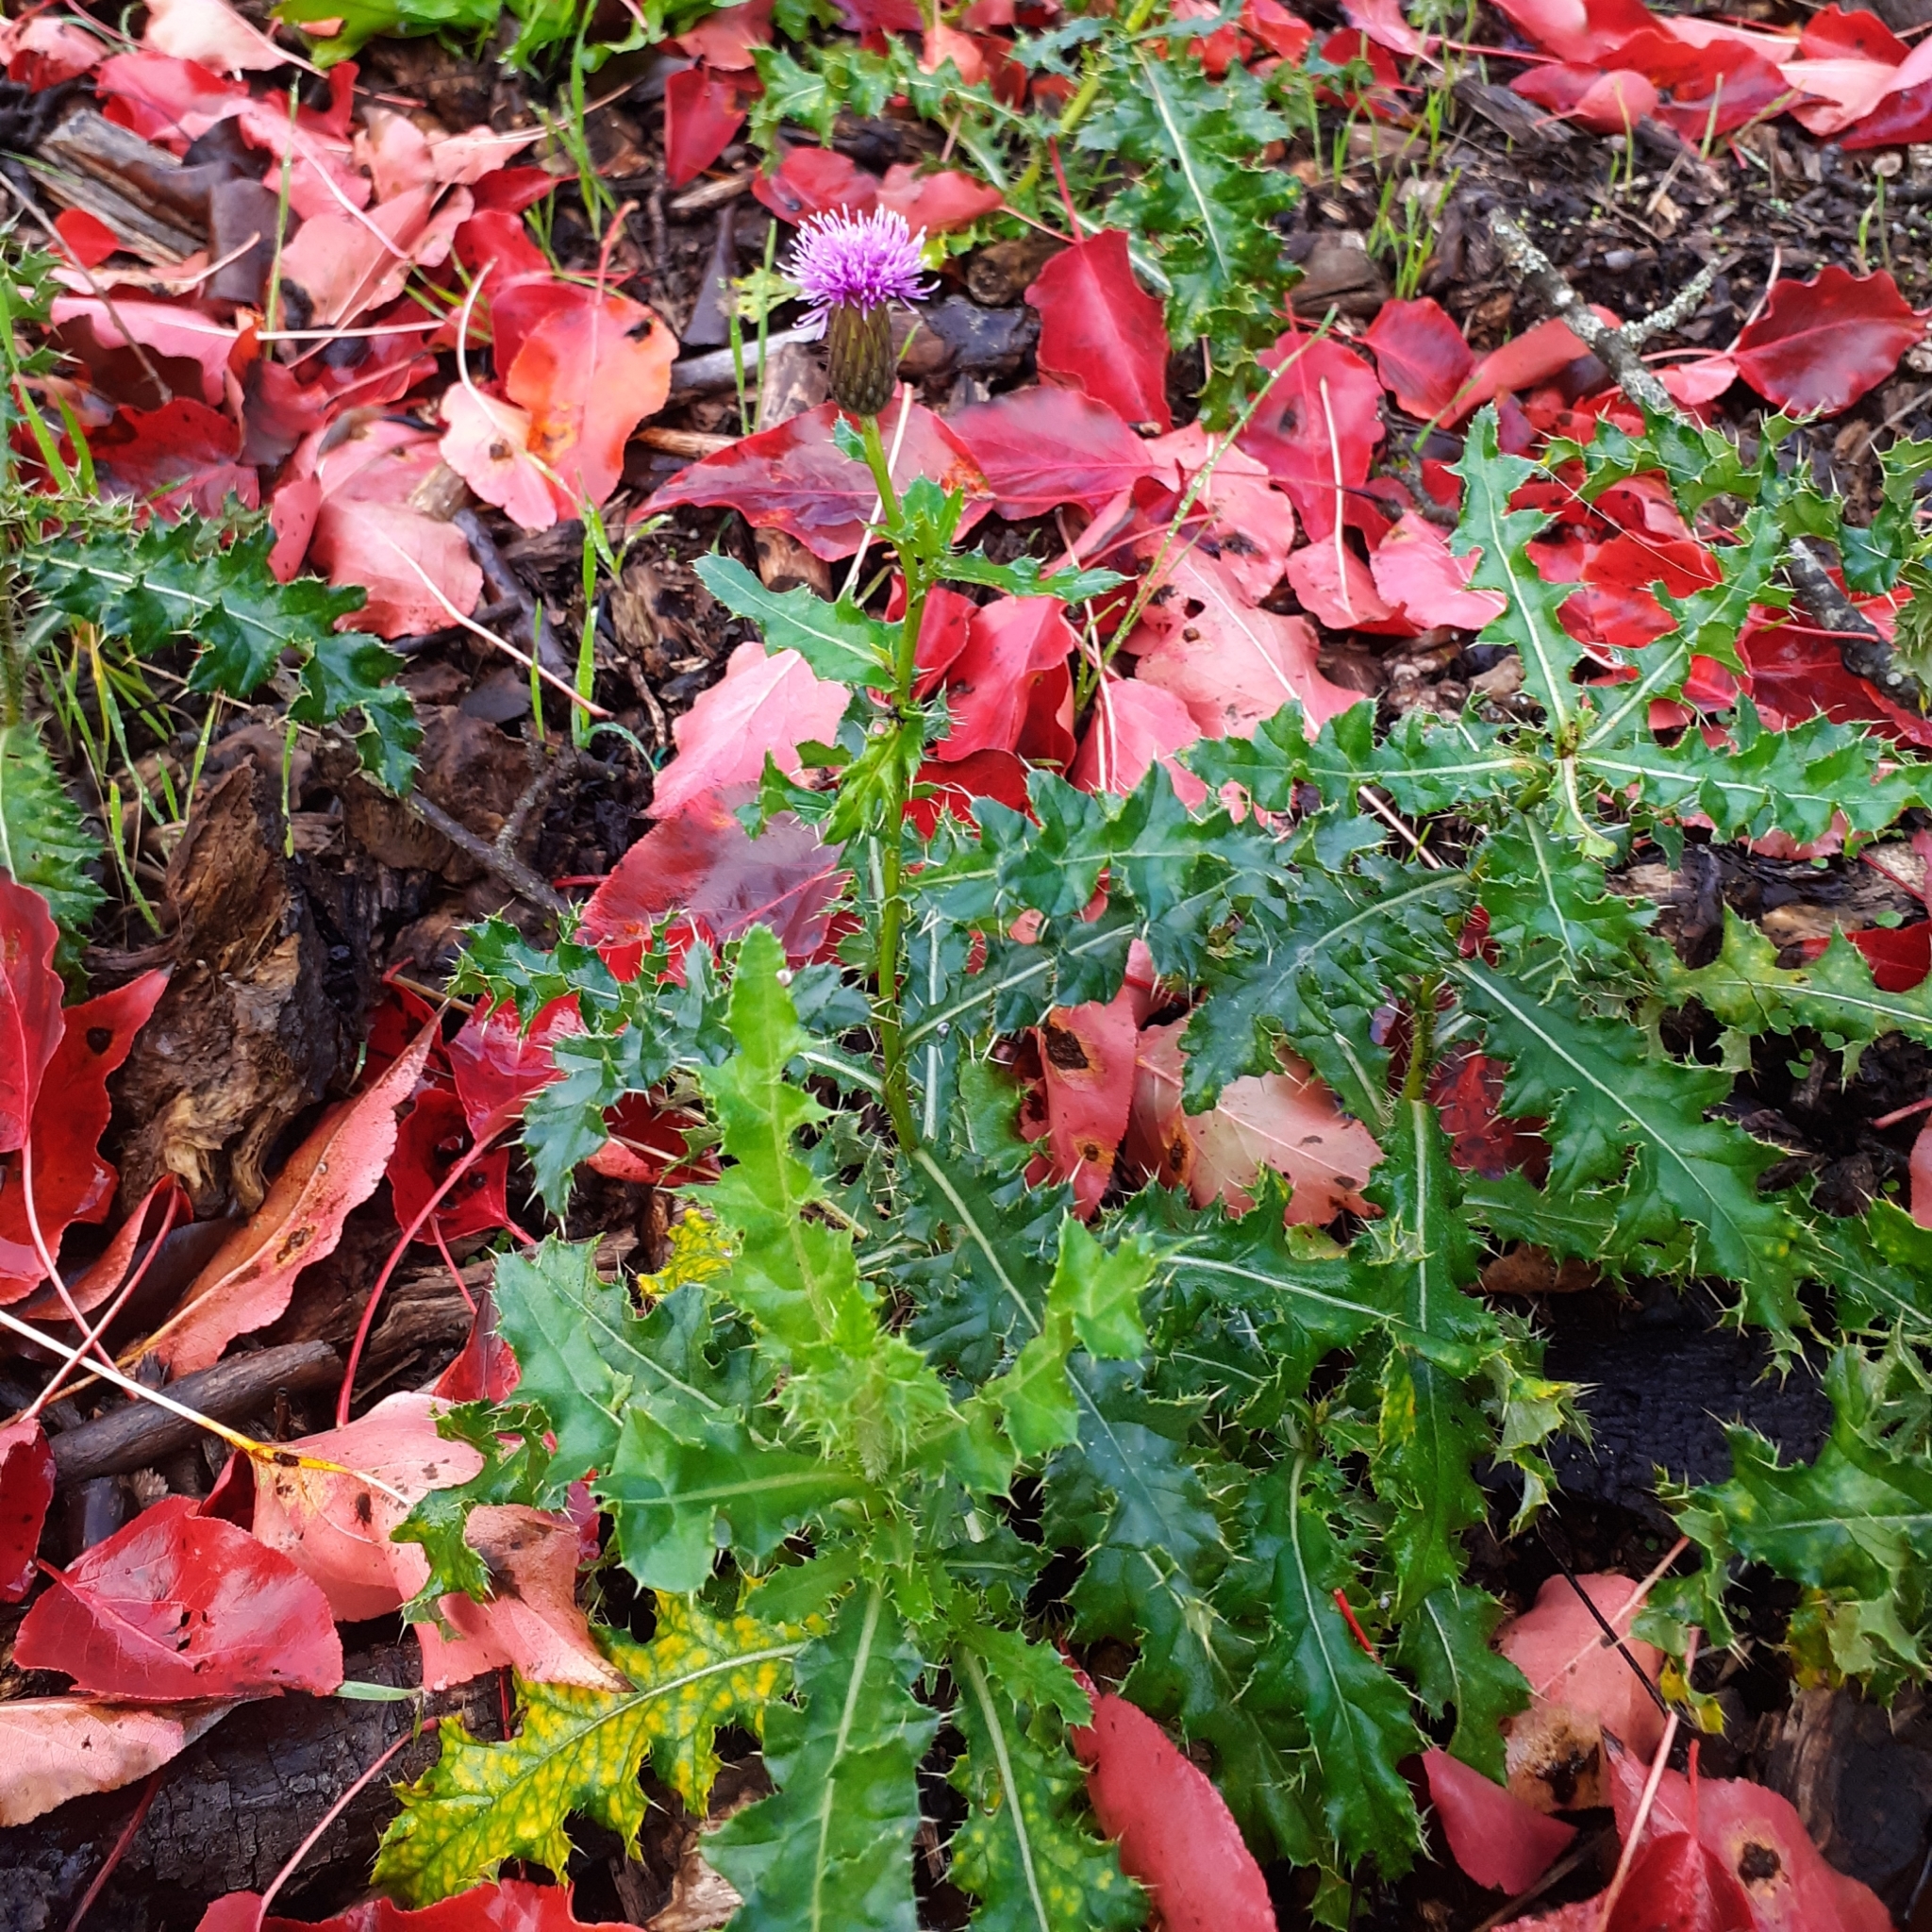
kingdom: Plantae
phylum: Tracheophyta
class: Magnoliopsida
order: Asterales
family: Asteraceae
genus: Cirsium
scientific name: Cirsium arvense
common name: Creeping thistle
